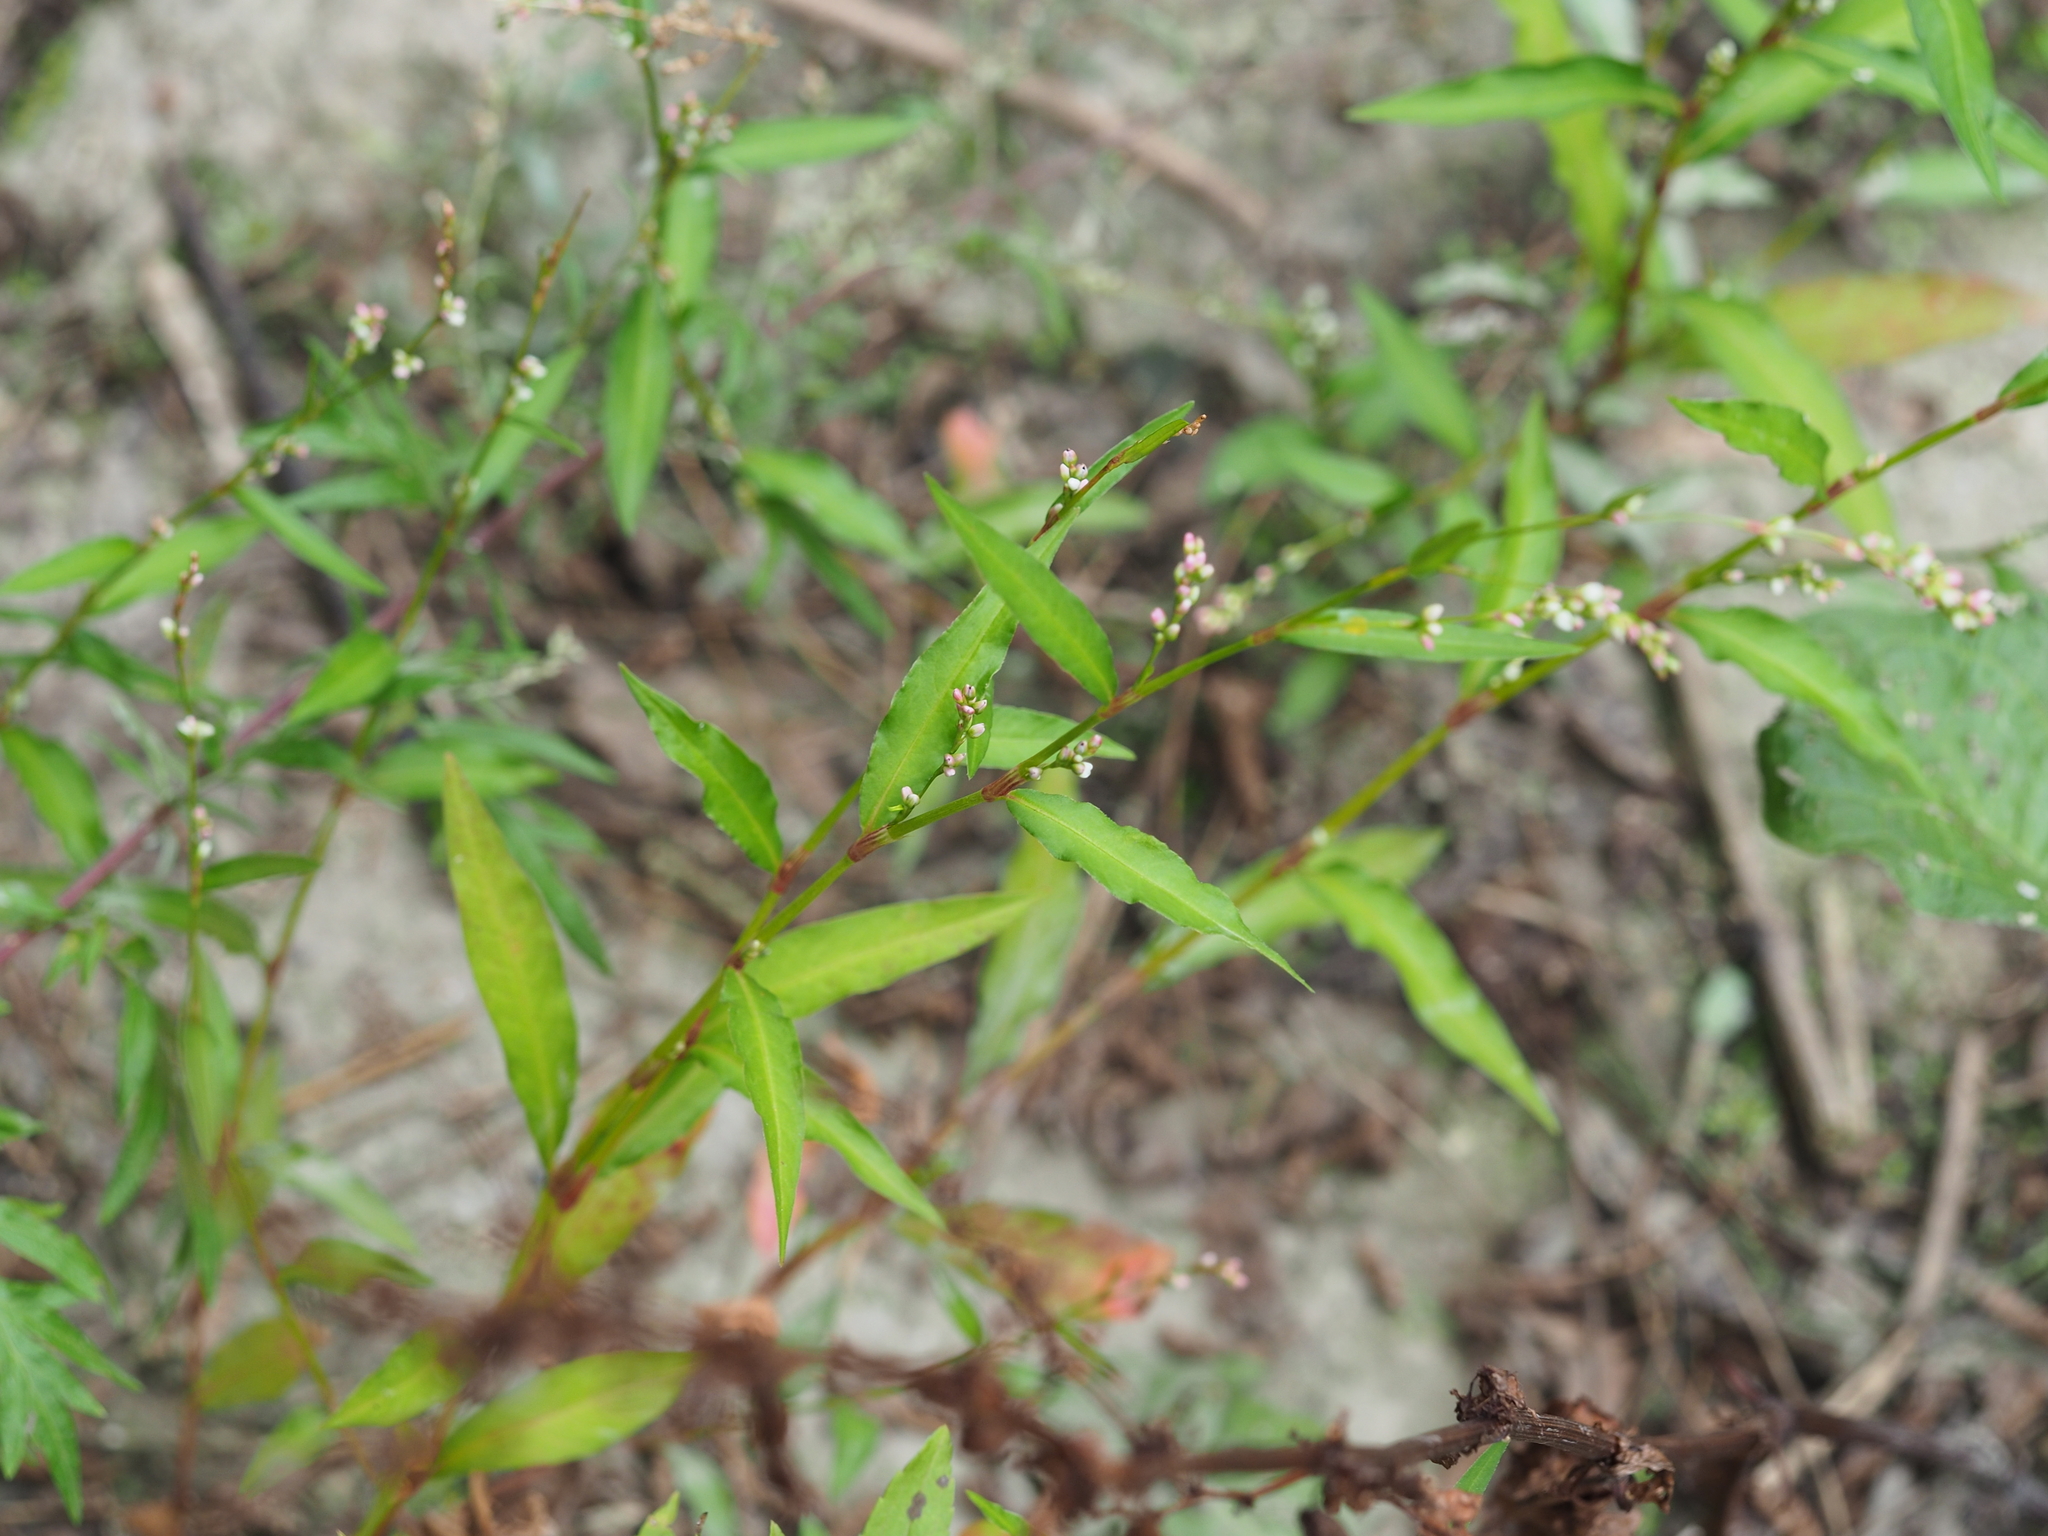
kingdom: Plantae
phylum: Tracheophyta
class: Magnoliopsida
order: Caryophyllales
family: Polygonaceae
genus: Persicaria
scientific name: Persicaria mitis
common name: Tasteless water-pepper
